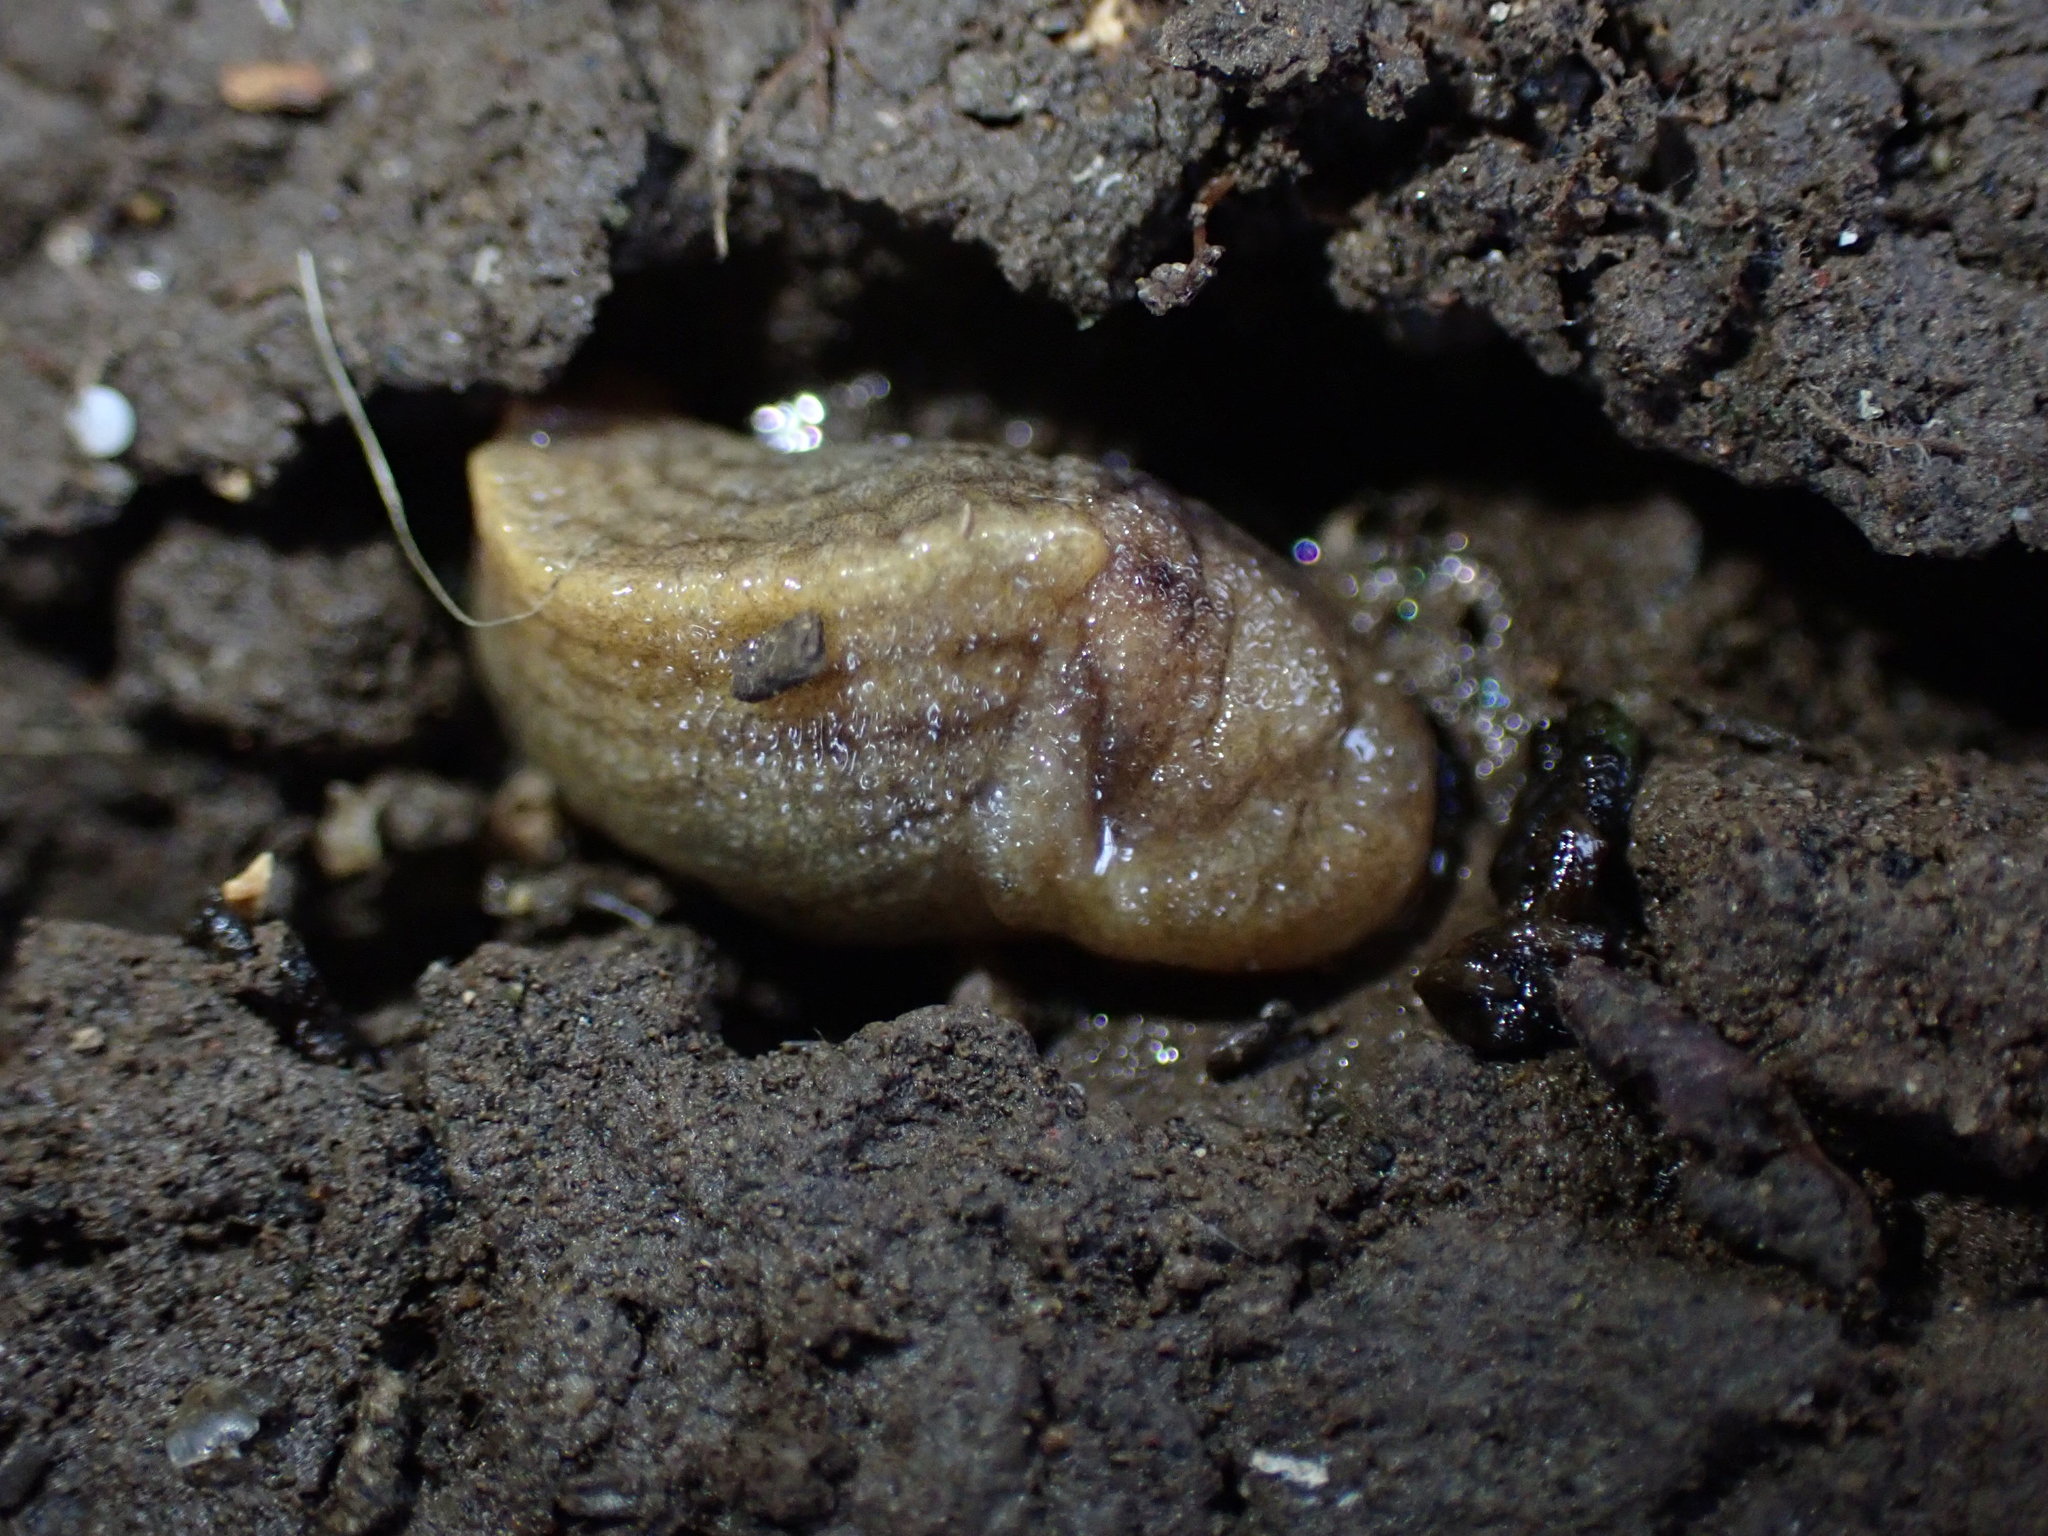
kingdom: Animalia
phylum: Mollusca
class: Gastropoda
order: Stylommatophora
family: Milacidae
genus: Milax
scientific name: Milax gagates
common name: Greenhouse slug
